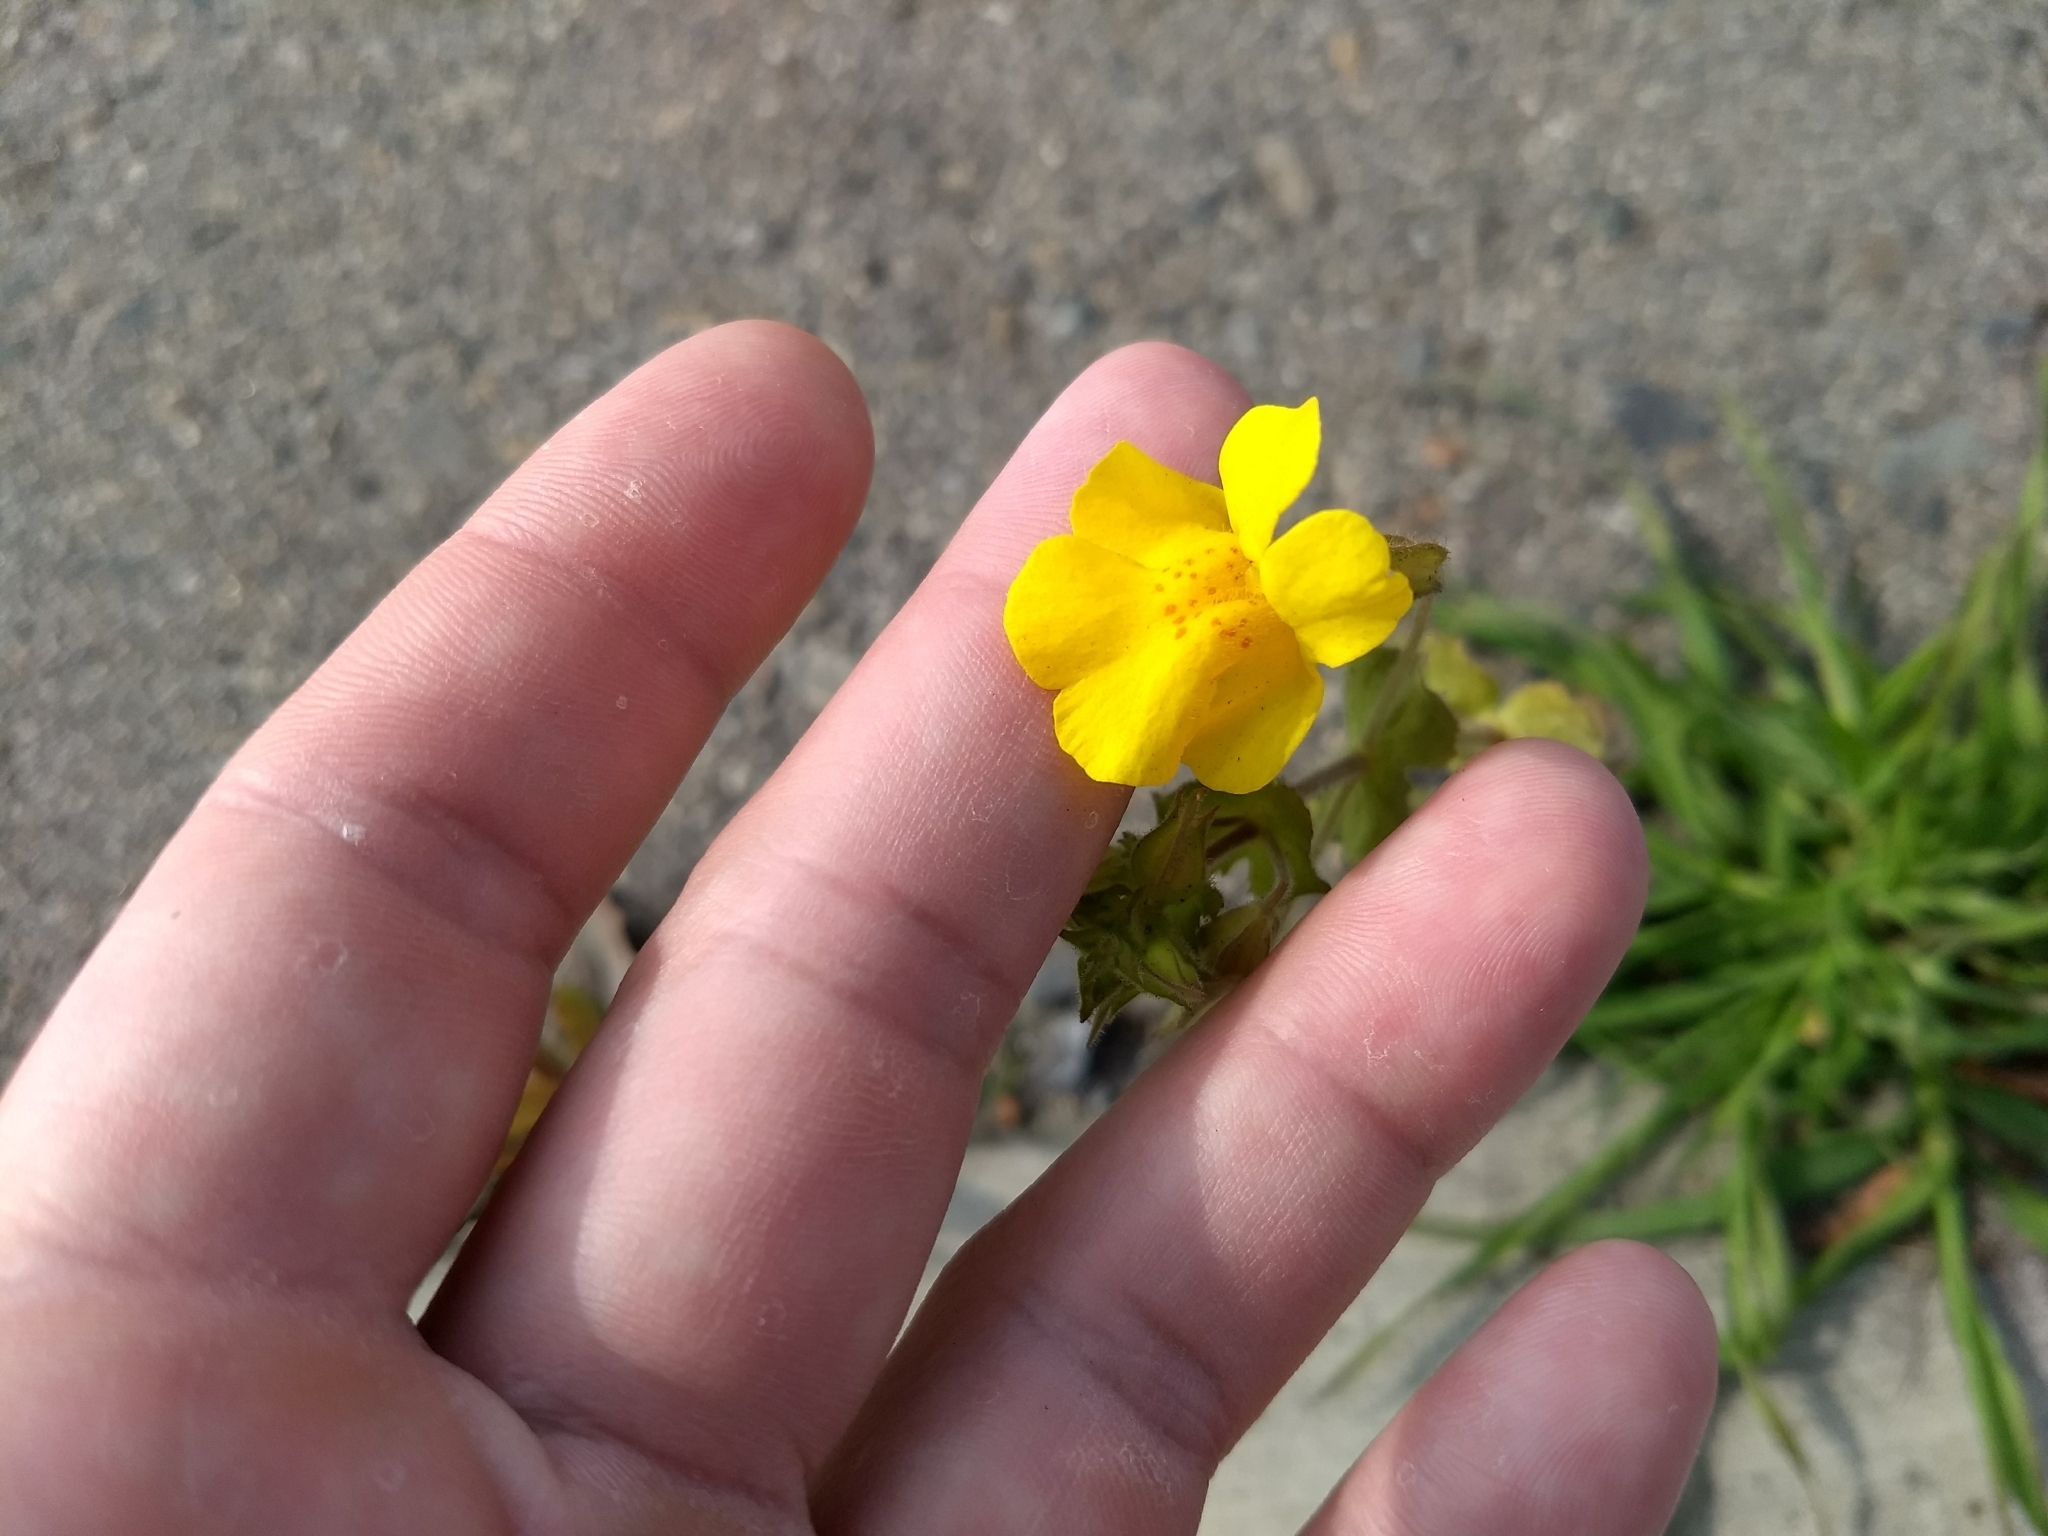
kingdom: Plantae
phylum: Tracheophyta
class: Magnoliopsida
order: Lamiales
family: Phrymaceae
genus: Erythranthe
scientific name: Erythranthe guttata
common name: Monkeyflower
